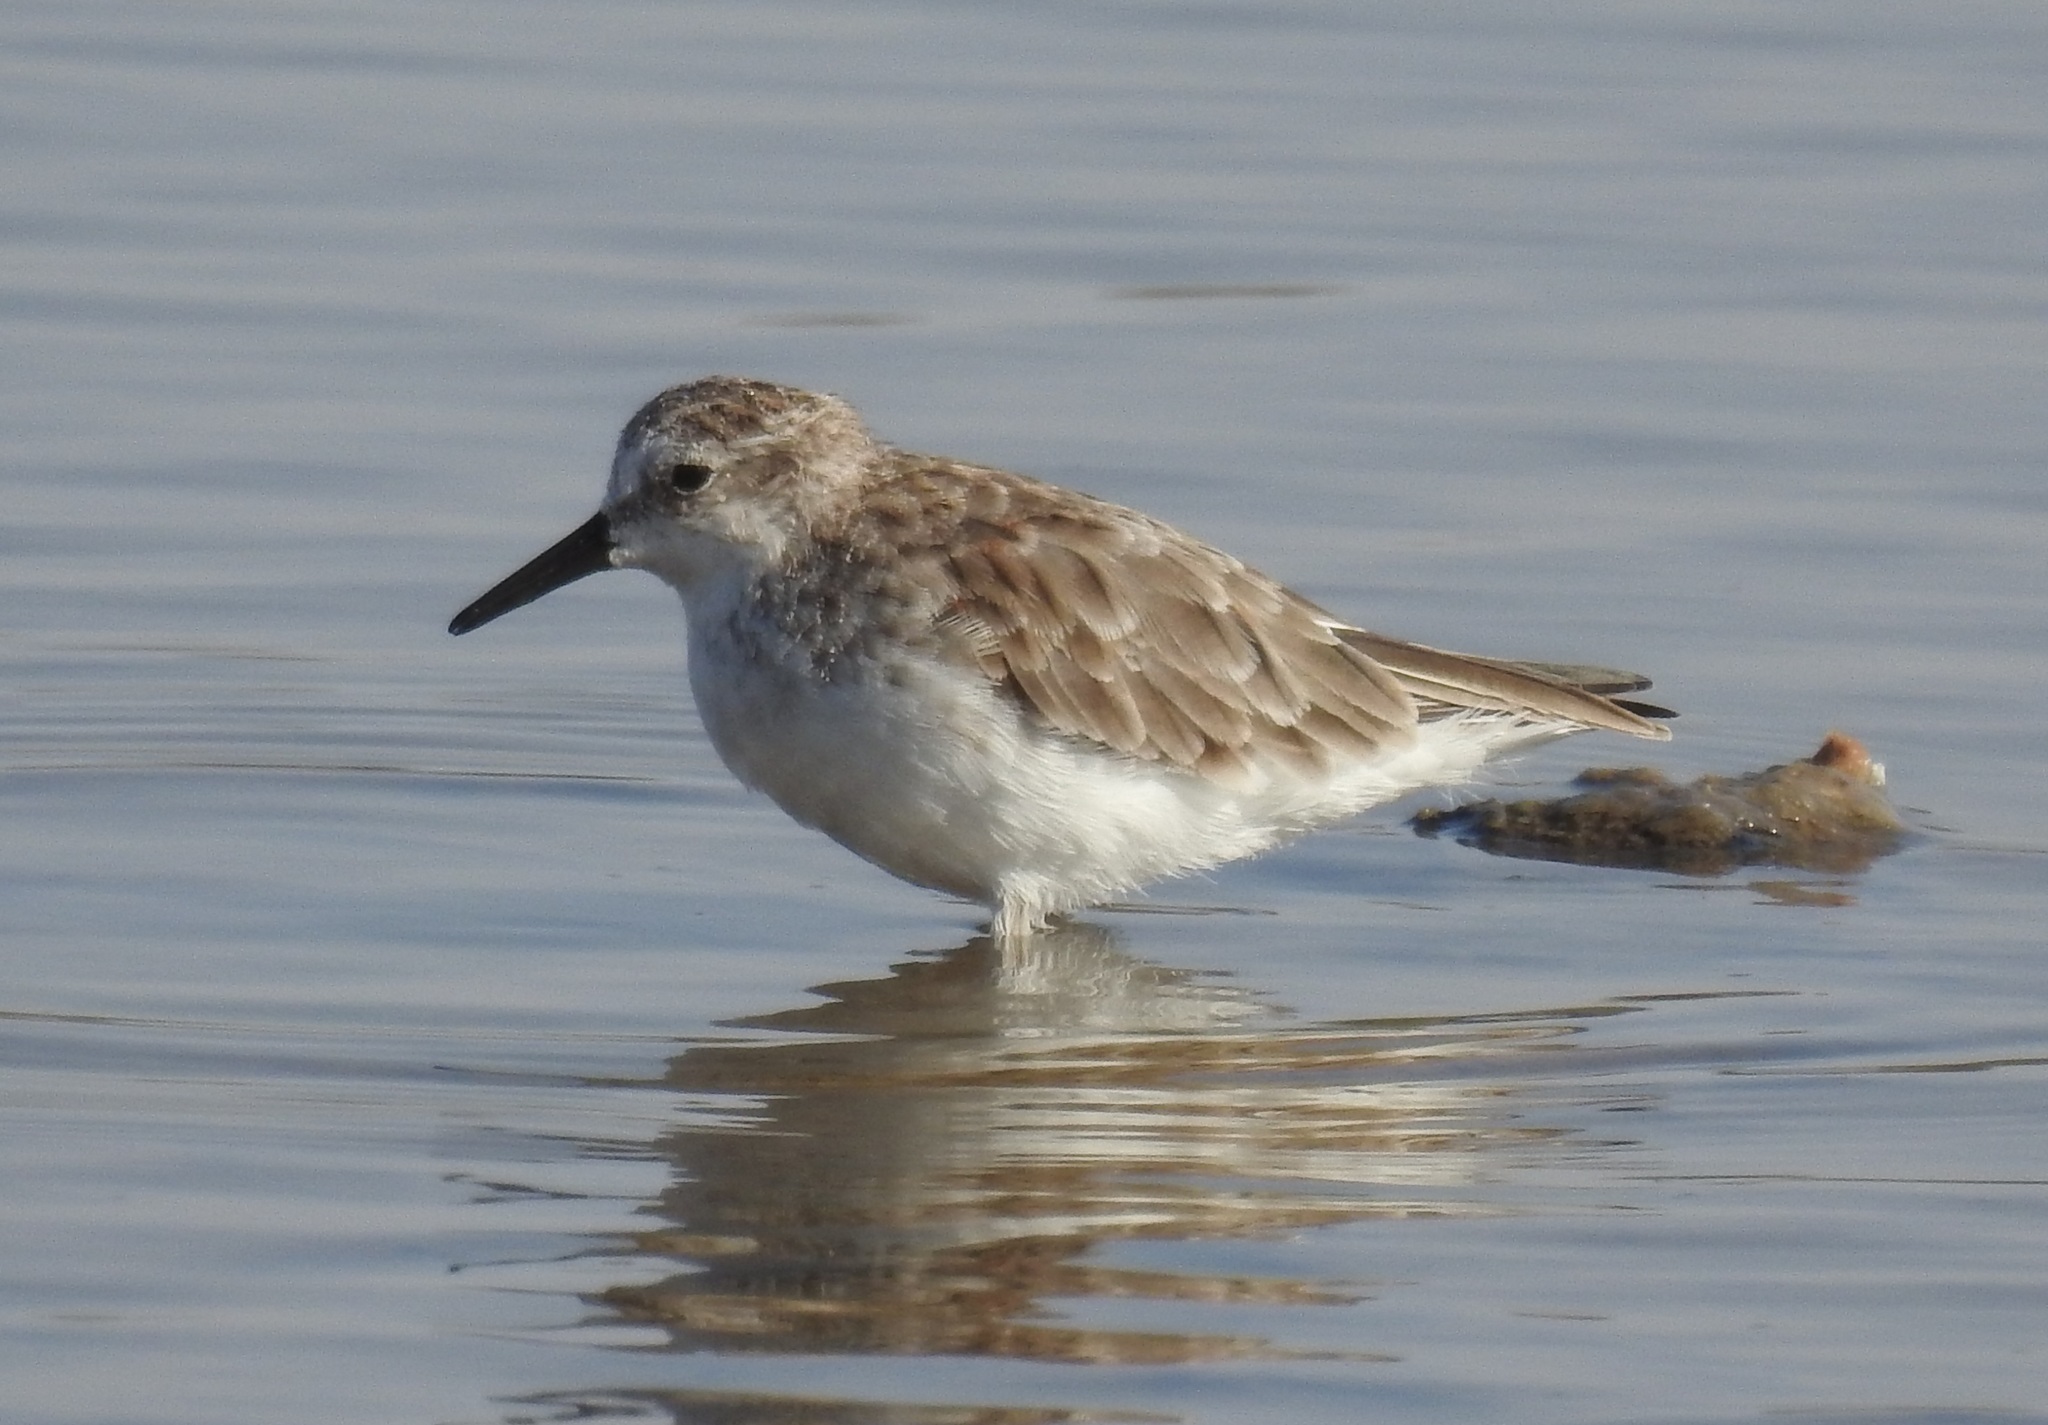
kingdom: Animalia
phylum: Chordata
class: Aves
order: Charadriiformes
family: Scolopacidae
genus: Calidris
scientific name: Calidris minuta
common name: Little stint
